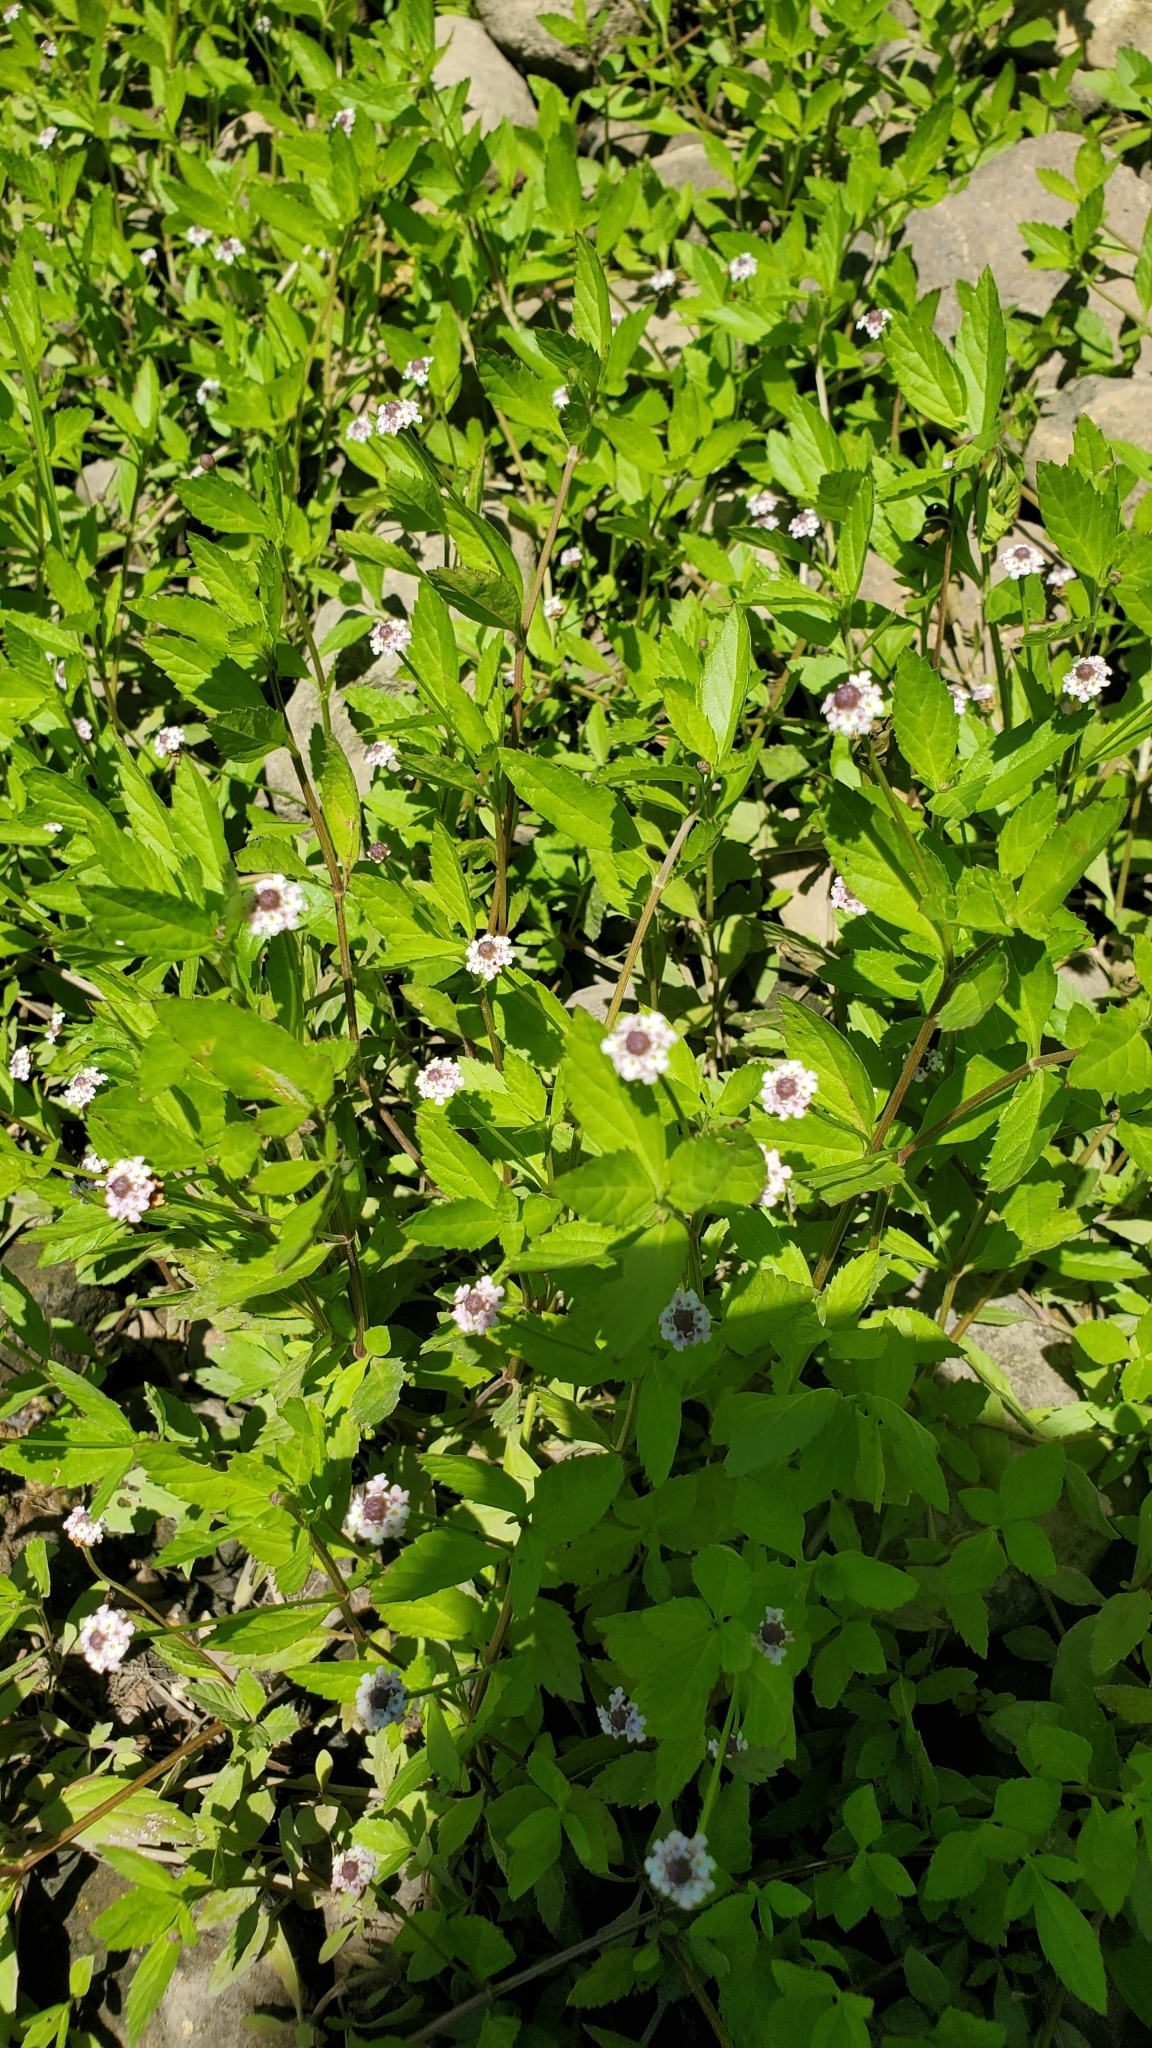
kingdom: Plantae
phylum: Tracheophyta
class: Magnoliopsida
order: Lamiales
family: Verbenaceae
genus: Phyla
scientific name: Phyla lanceolata
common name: Northern fogfruit
